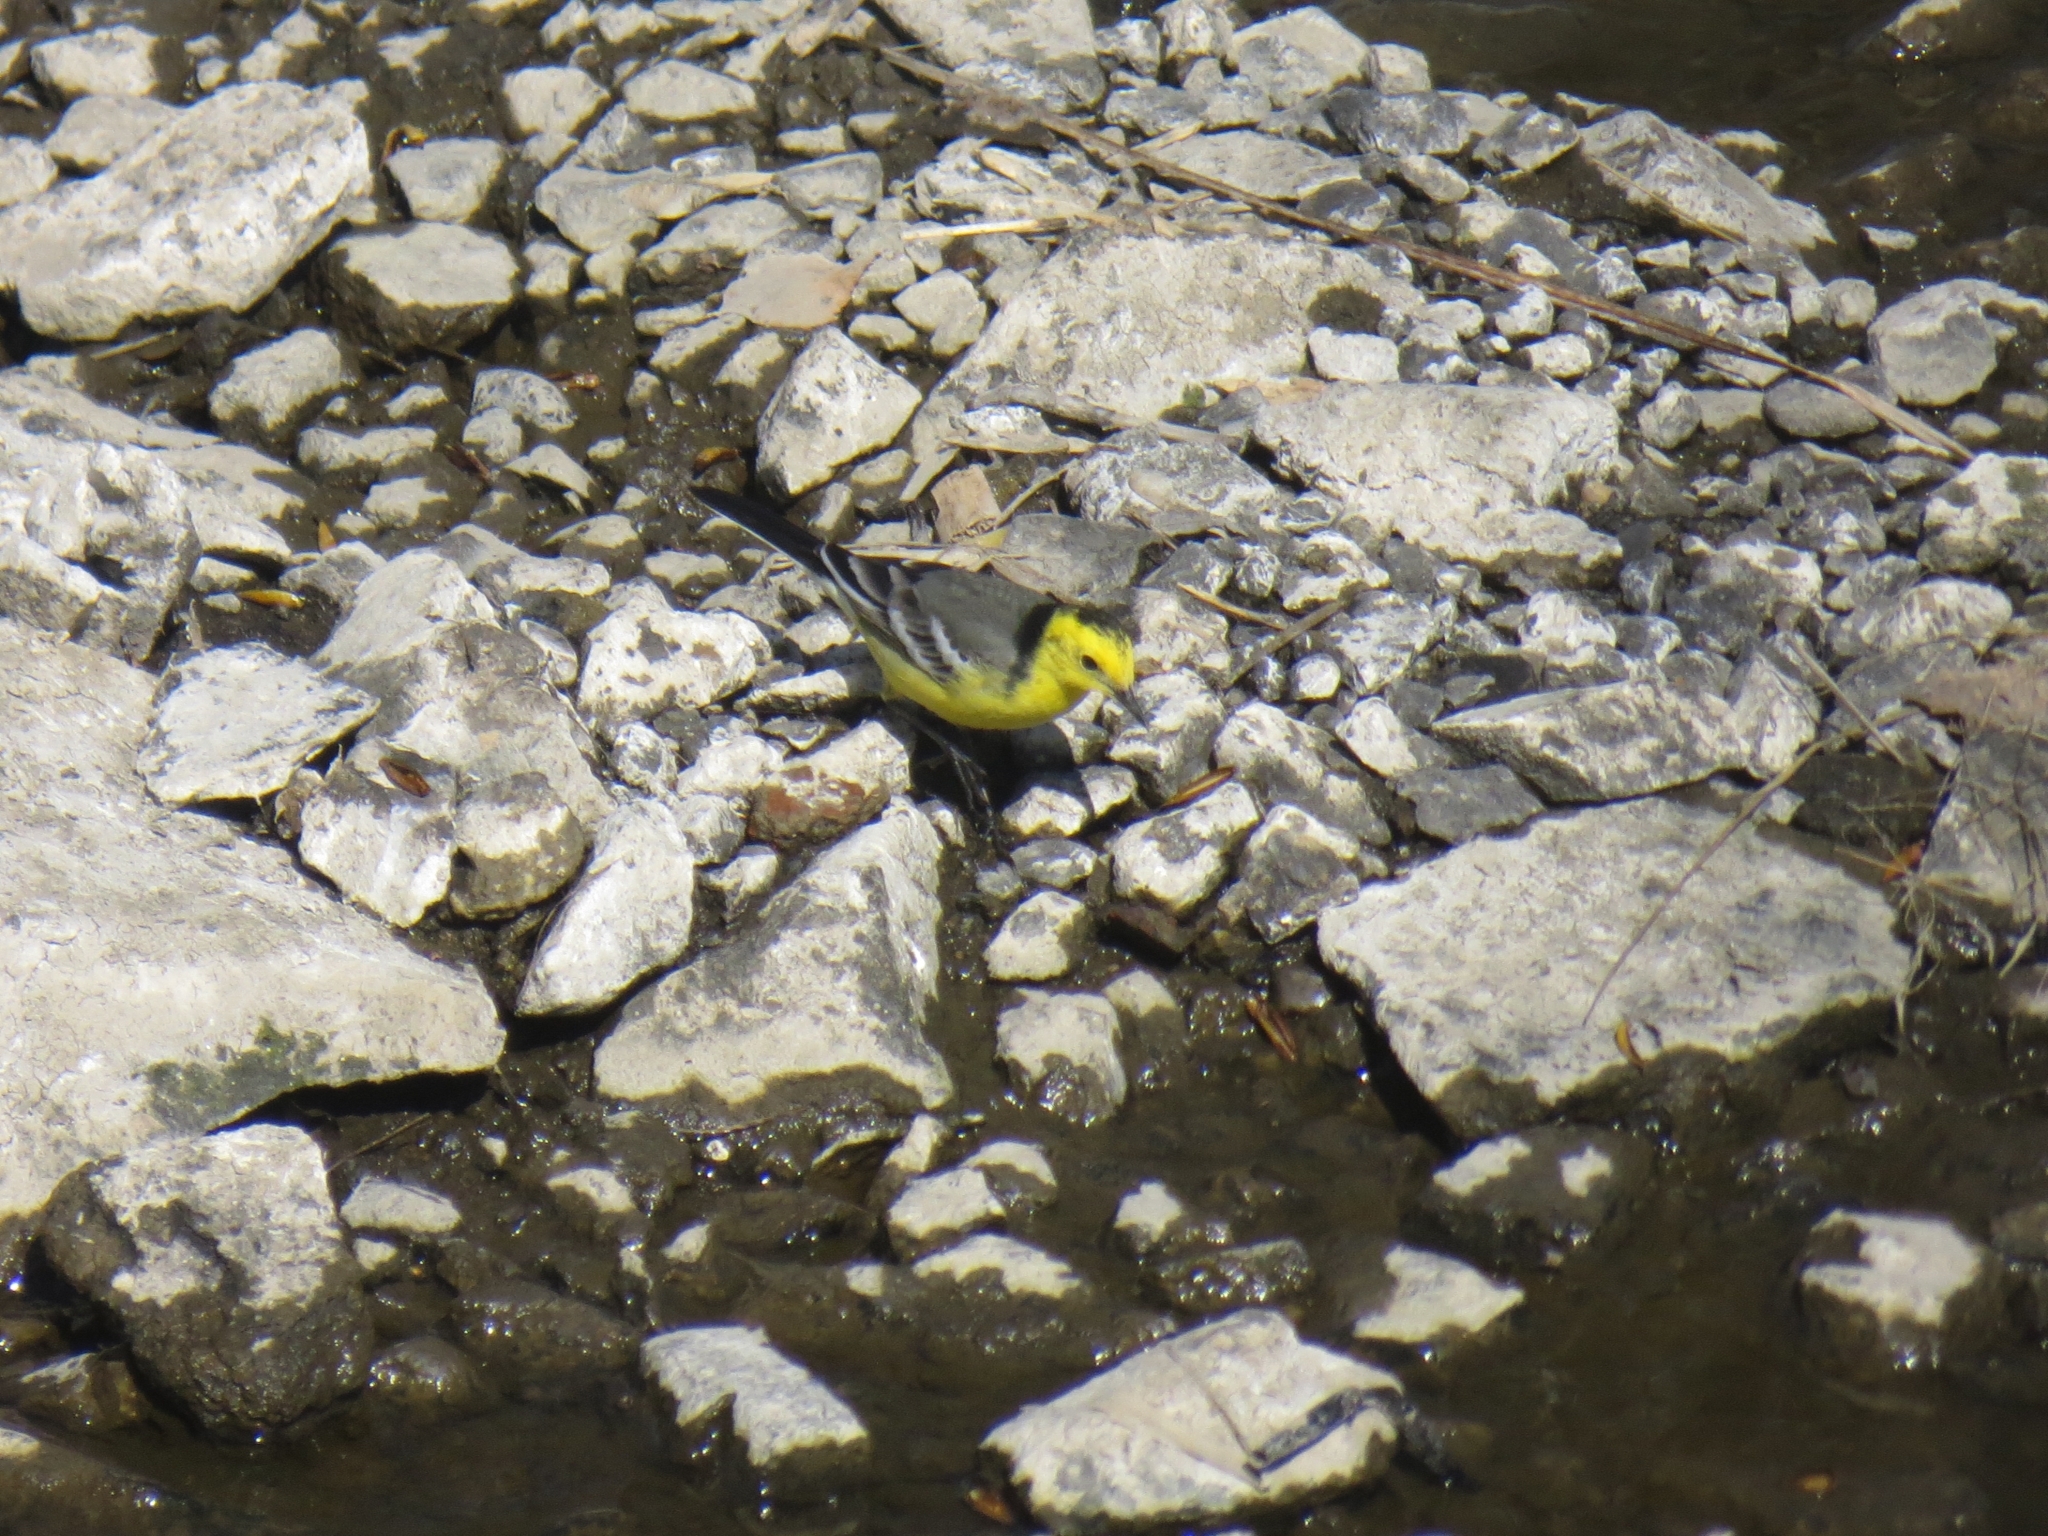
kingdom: Animalia
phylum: Chordata
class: Aves
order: Passeriformes
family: Motacillidae
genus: Motacilla
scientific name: Motacilla citreola
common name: Citrine wagtail
